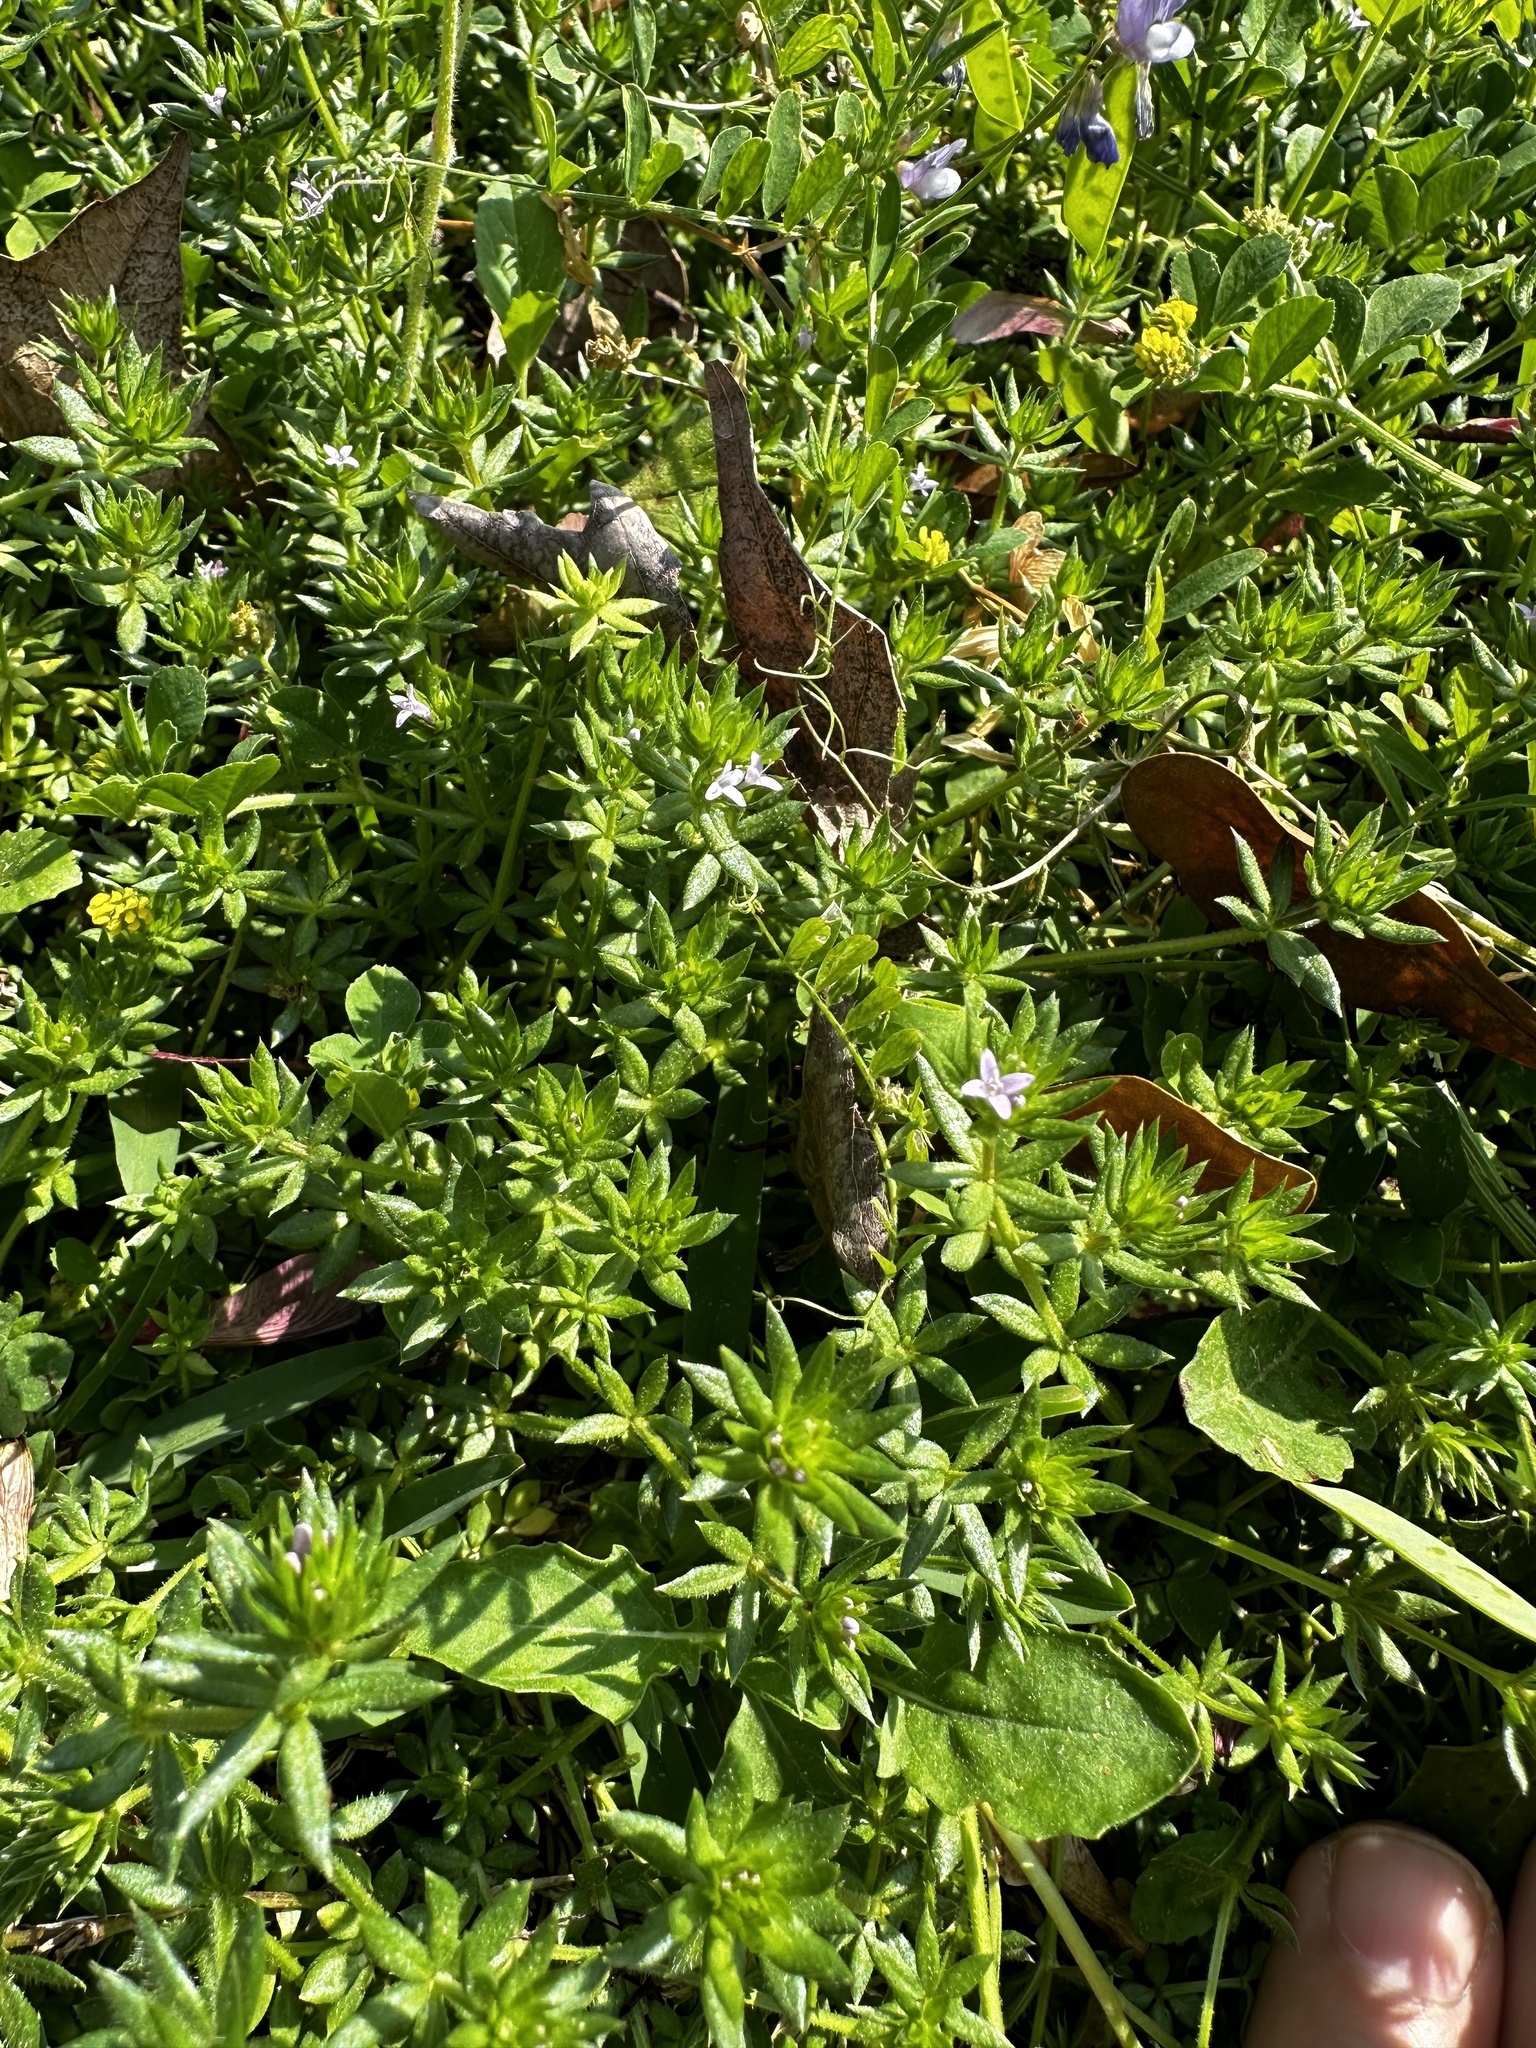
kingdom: Plantae
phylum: Tracheophyta
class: Magnoliopsida
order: Gentianales
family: Rubiaceae
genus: Sherardia
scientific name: Sherardia arvensis
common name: Field madder
